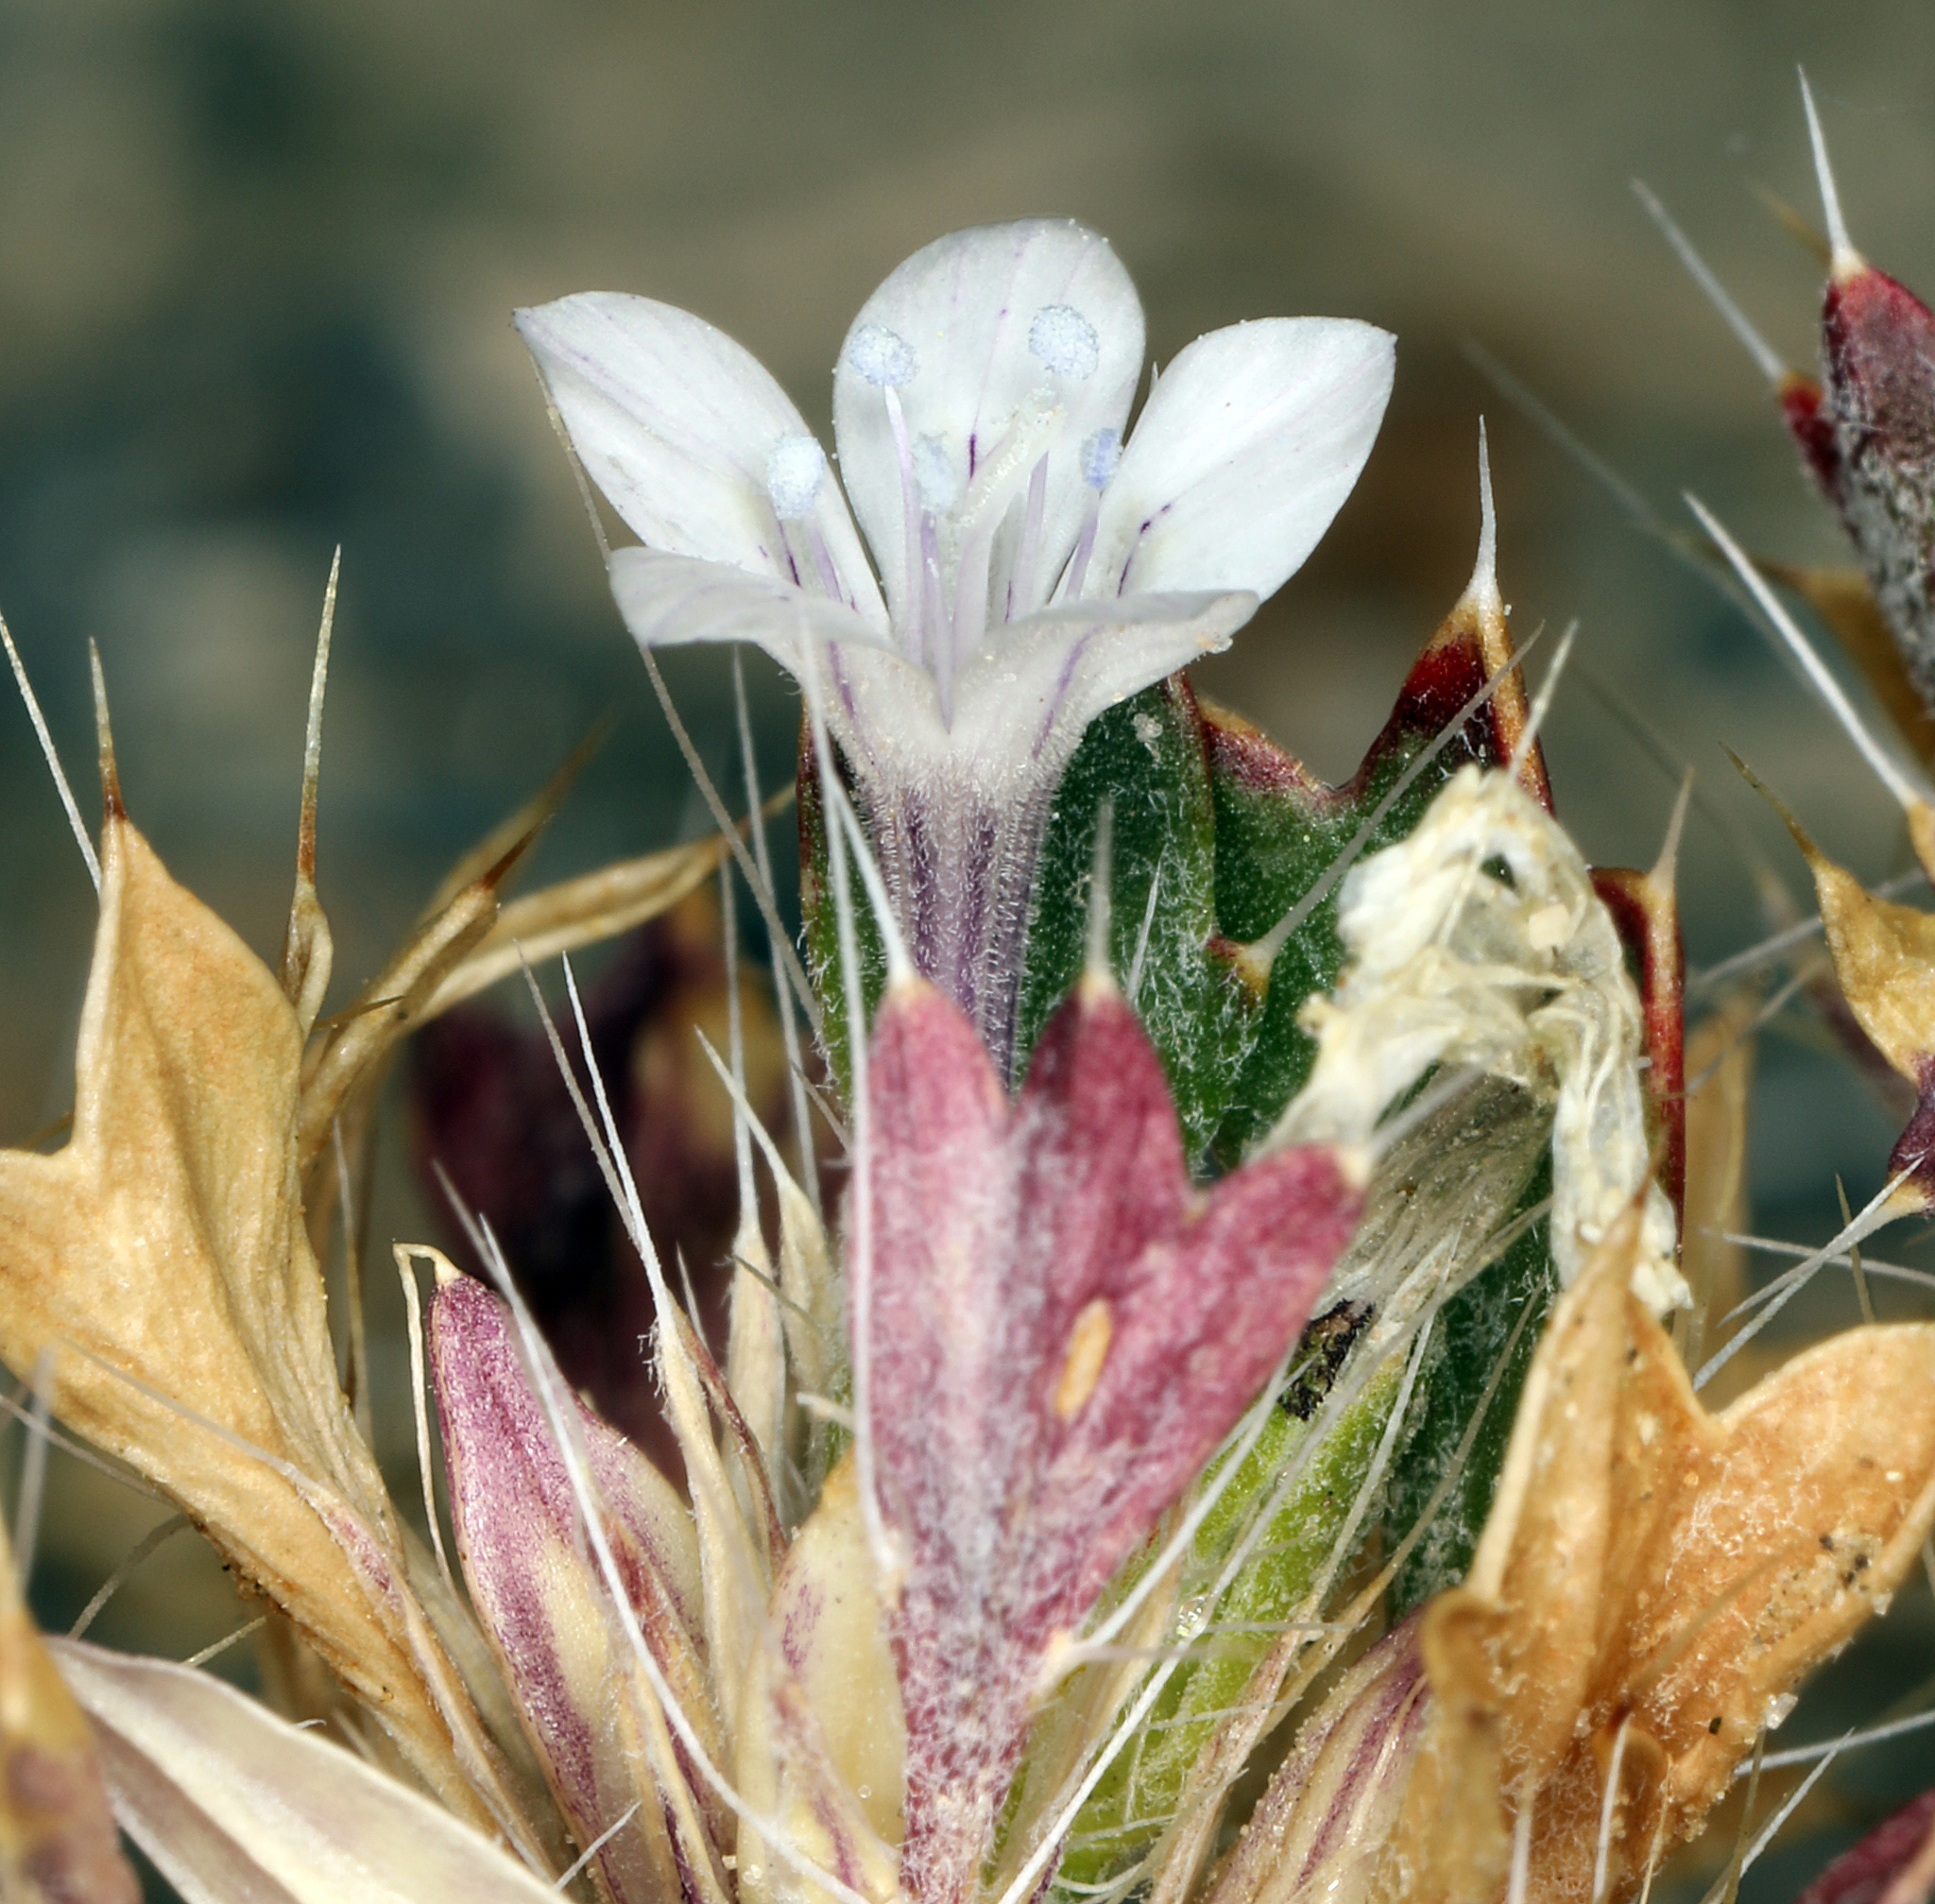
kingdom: Plantae
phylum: Tracheophyta
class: Magnoliopsida
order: Ericales
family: Polemoniaceae
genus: Langloisia
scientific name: Langloisia setosissima
